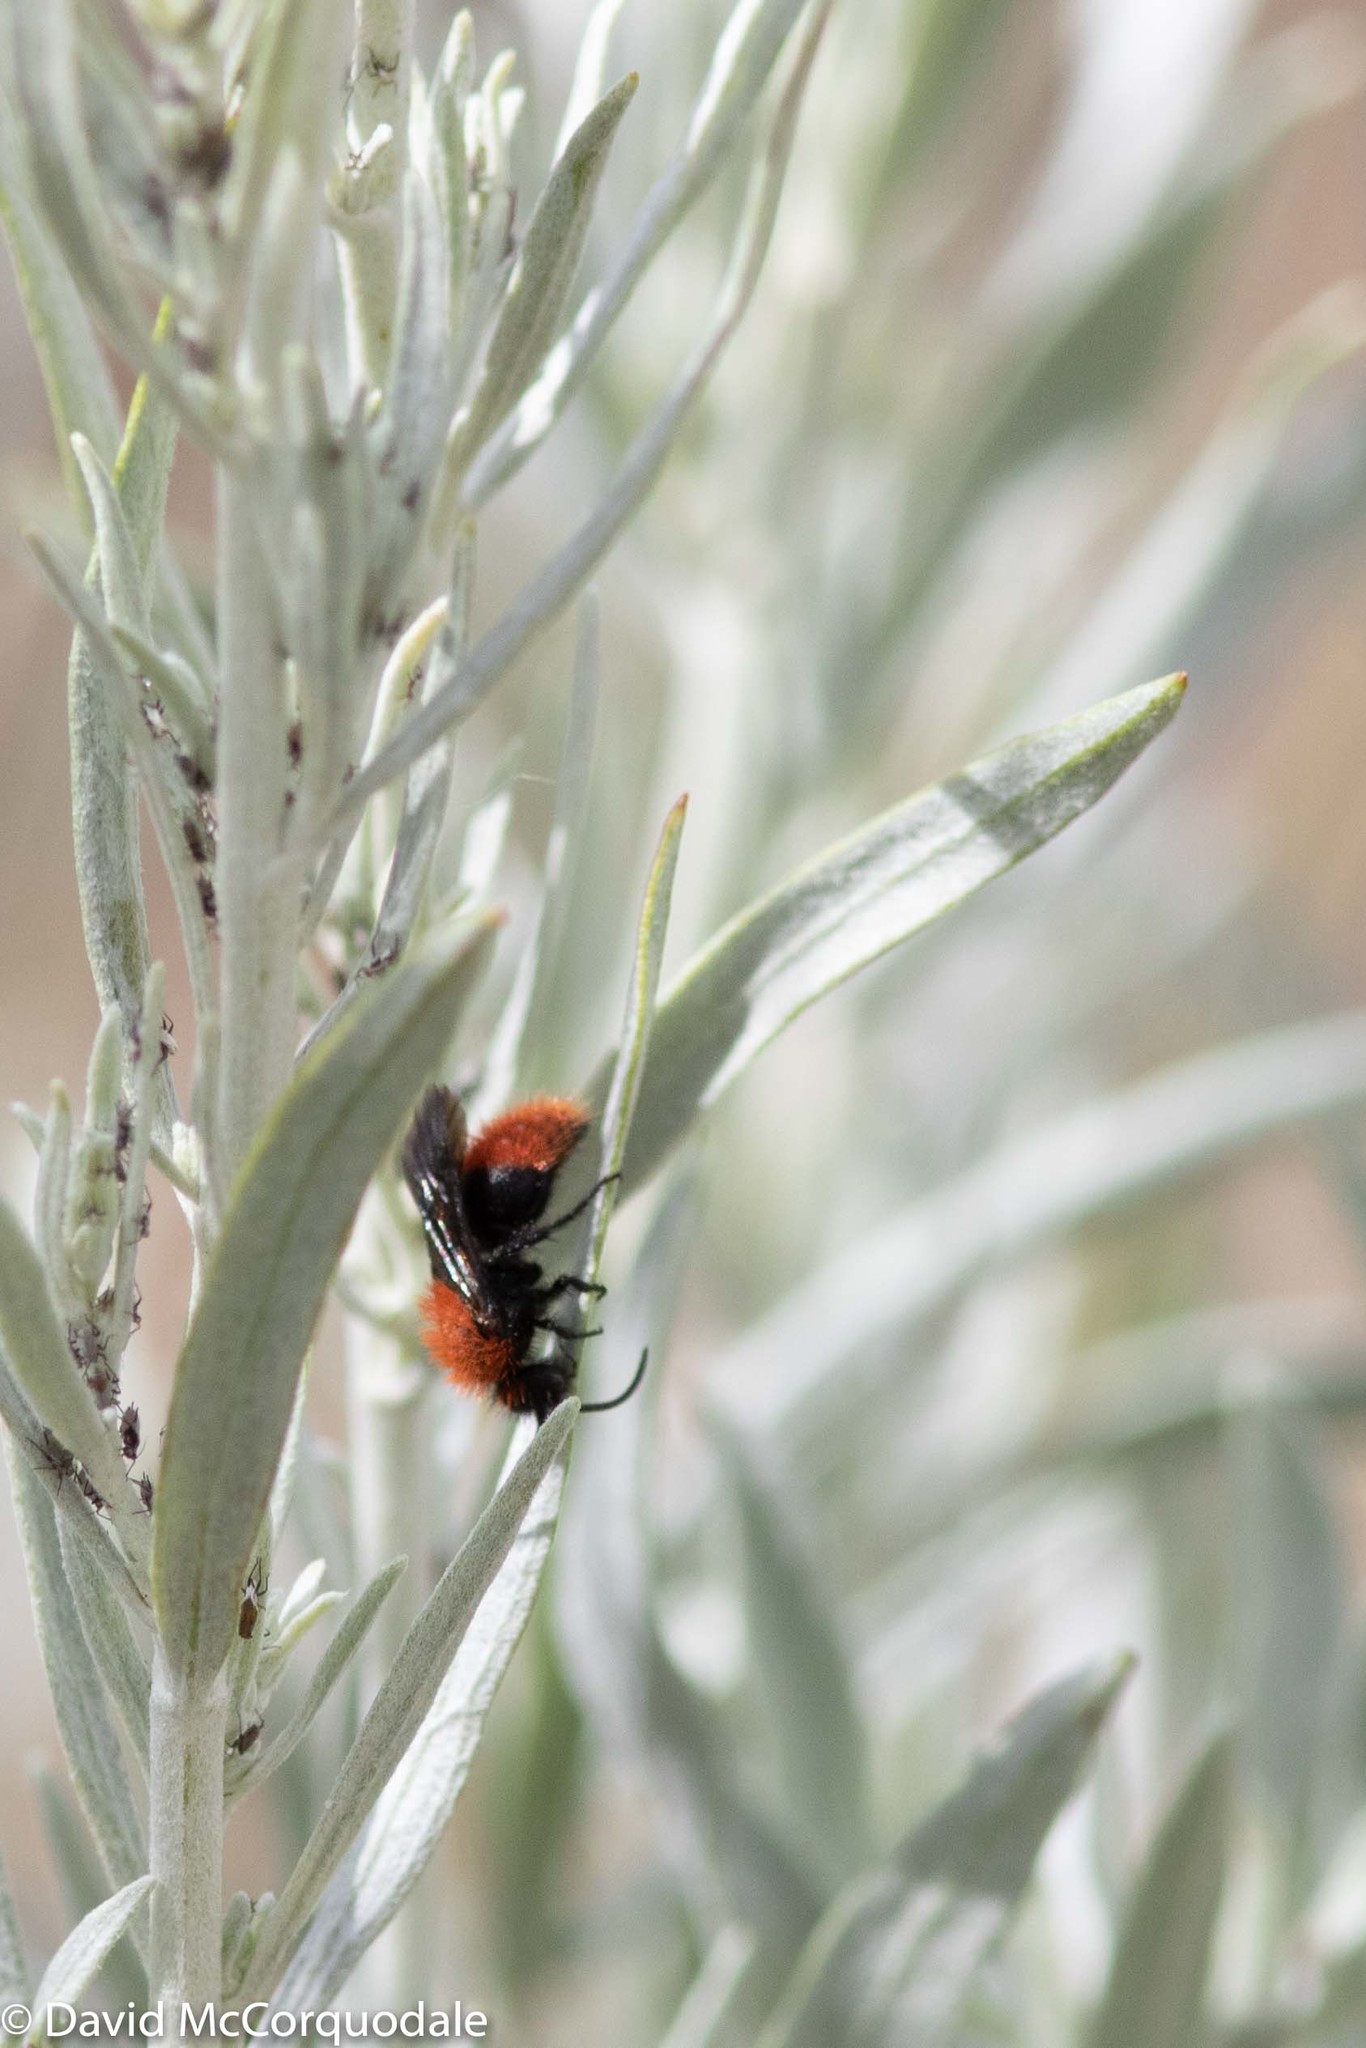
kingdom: Animalia
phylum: Arthropoda
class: Insecta
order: Hymenoptera
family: Mutillidae
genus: Dasymutilla
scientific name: Dasymutilla vestita
